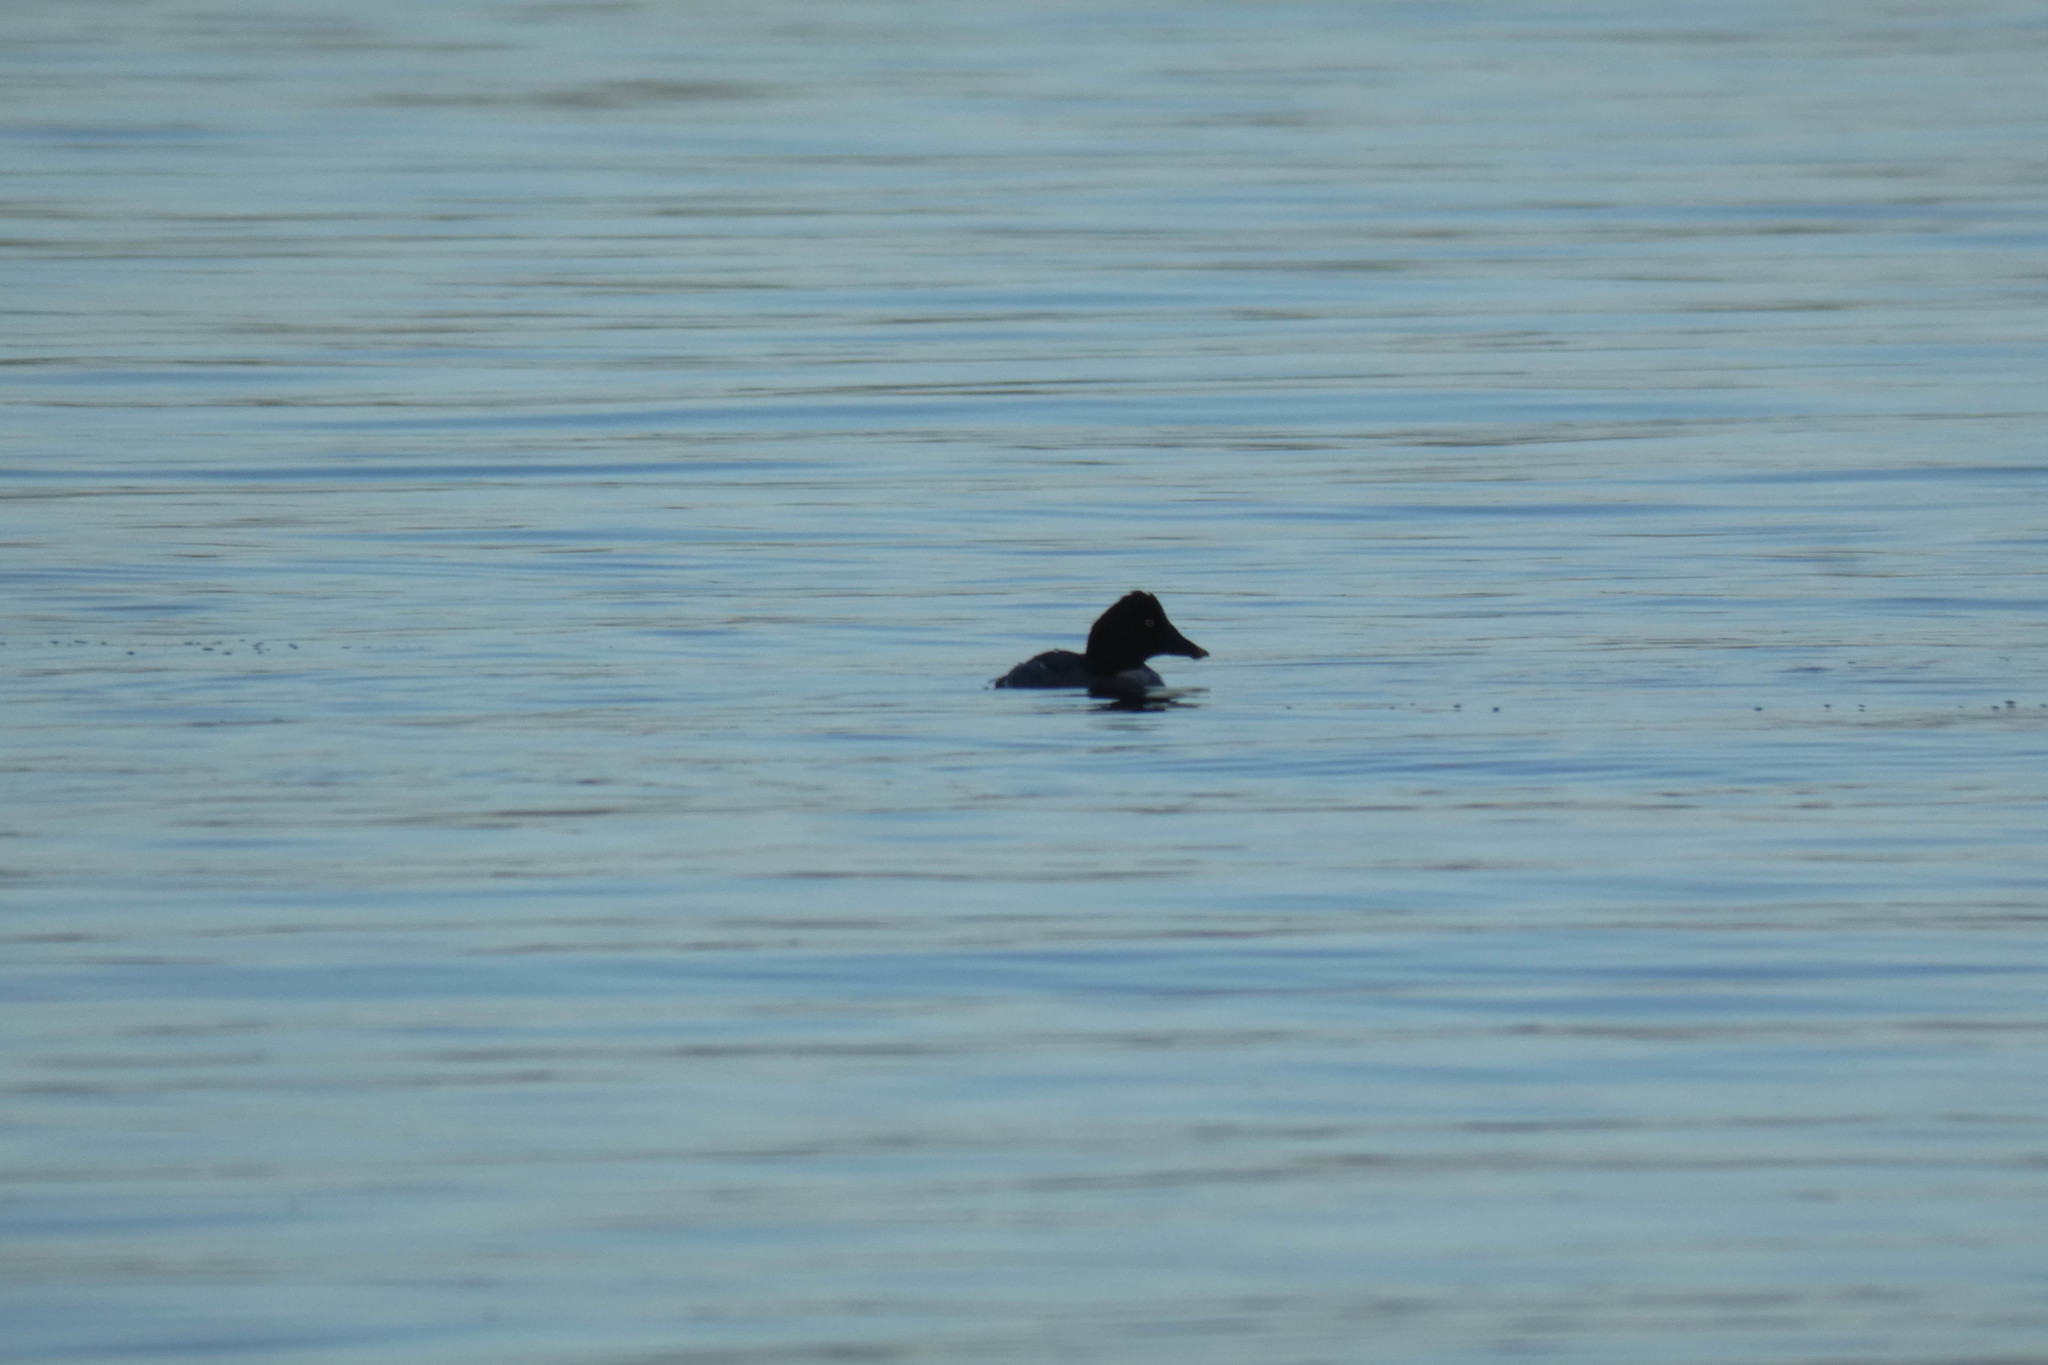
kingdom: Animalia
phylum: Chordata
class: Aves
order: Anseriformes
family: Anatidae
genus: Bucephala
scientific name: Bucephala clangula
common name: Common goldeneye
